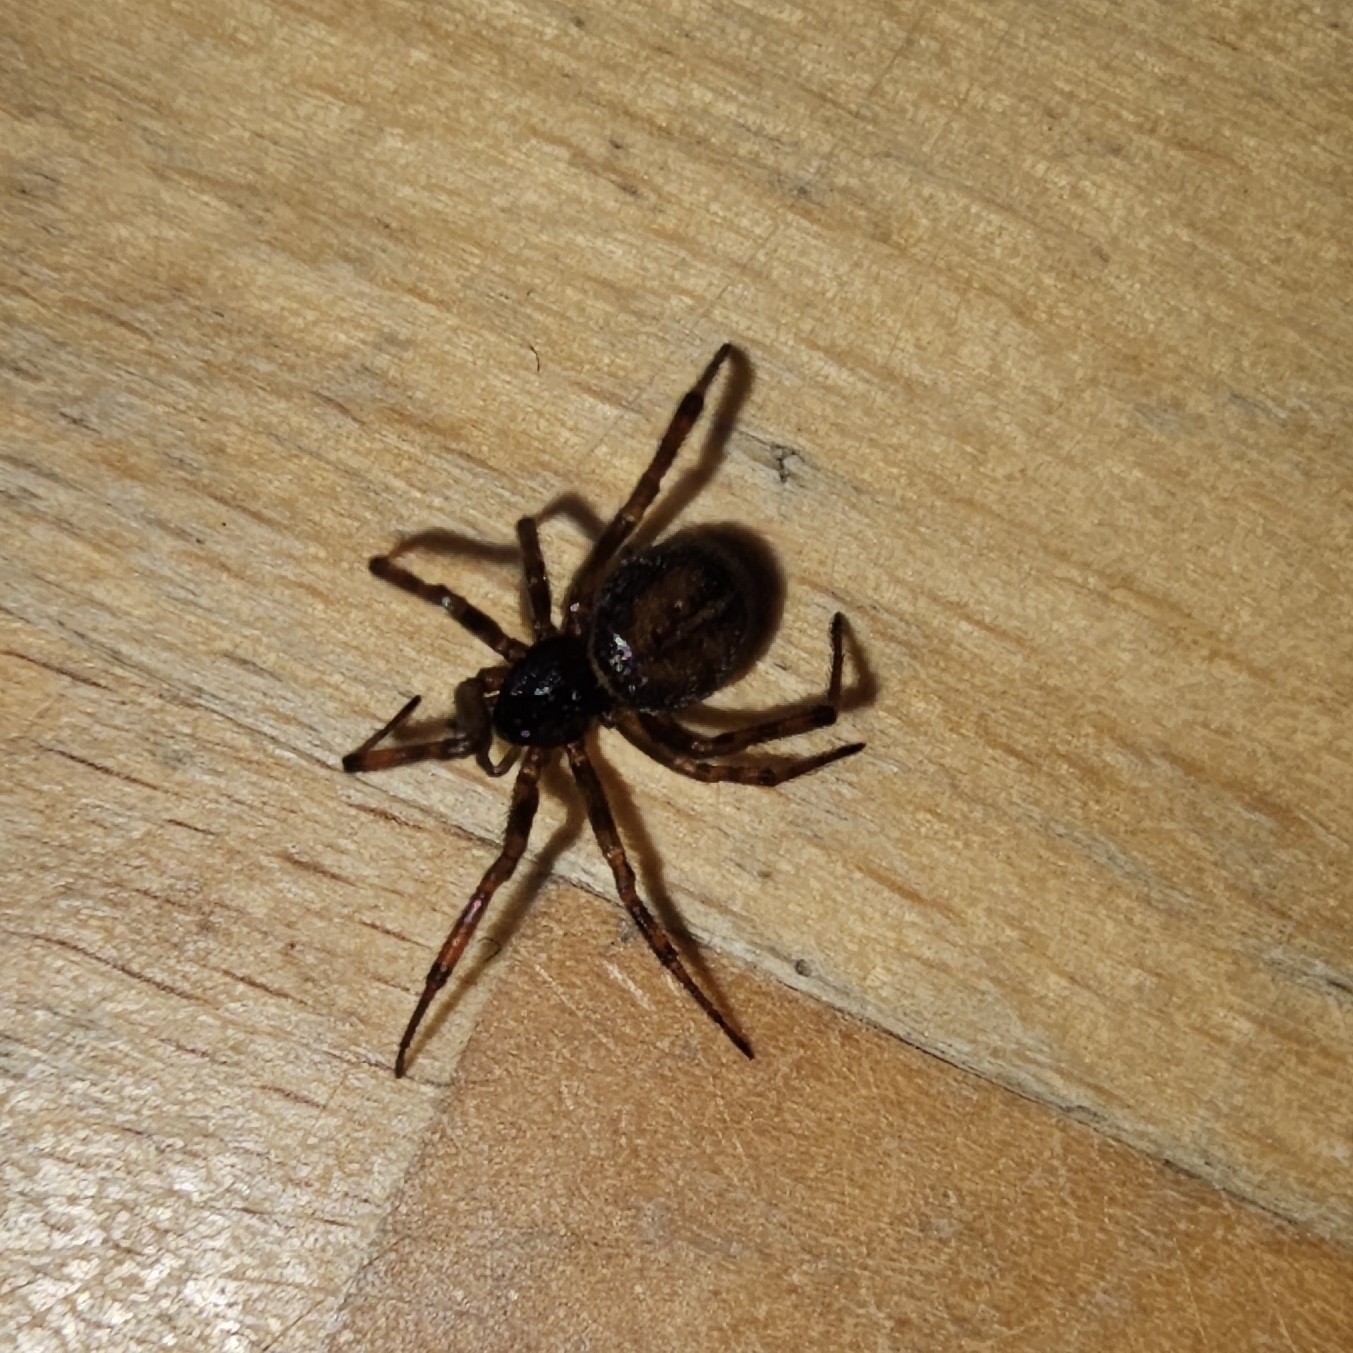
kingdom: Animalia
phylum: Arthropoda
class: Arachnida
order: Araneae
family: Theridiidae
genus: Steatoda
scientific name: Steatoda bipunctata
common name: False widow
